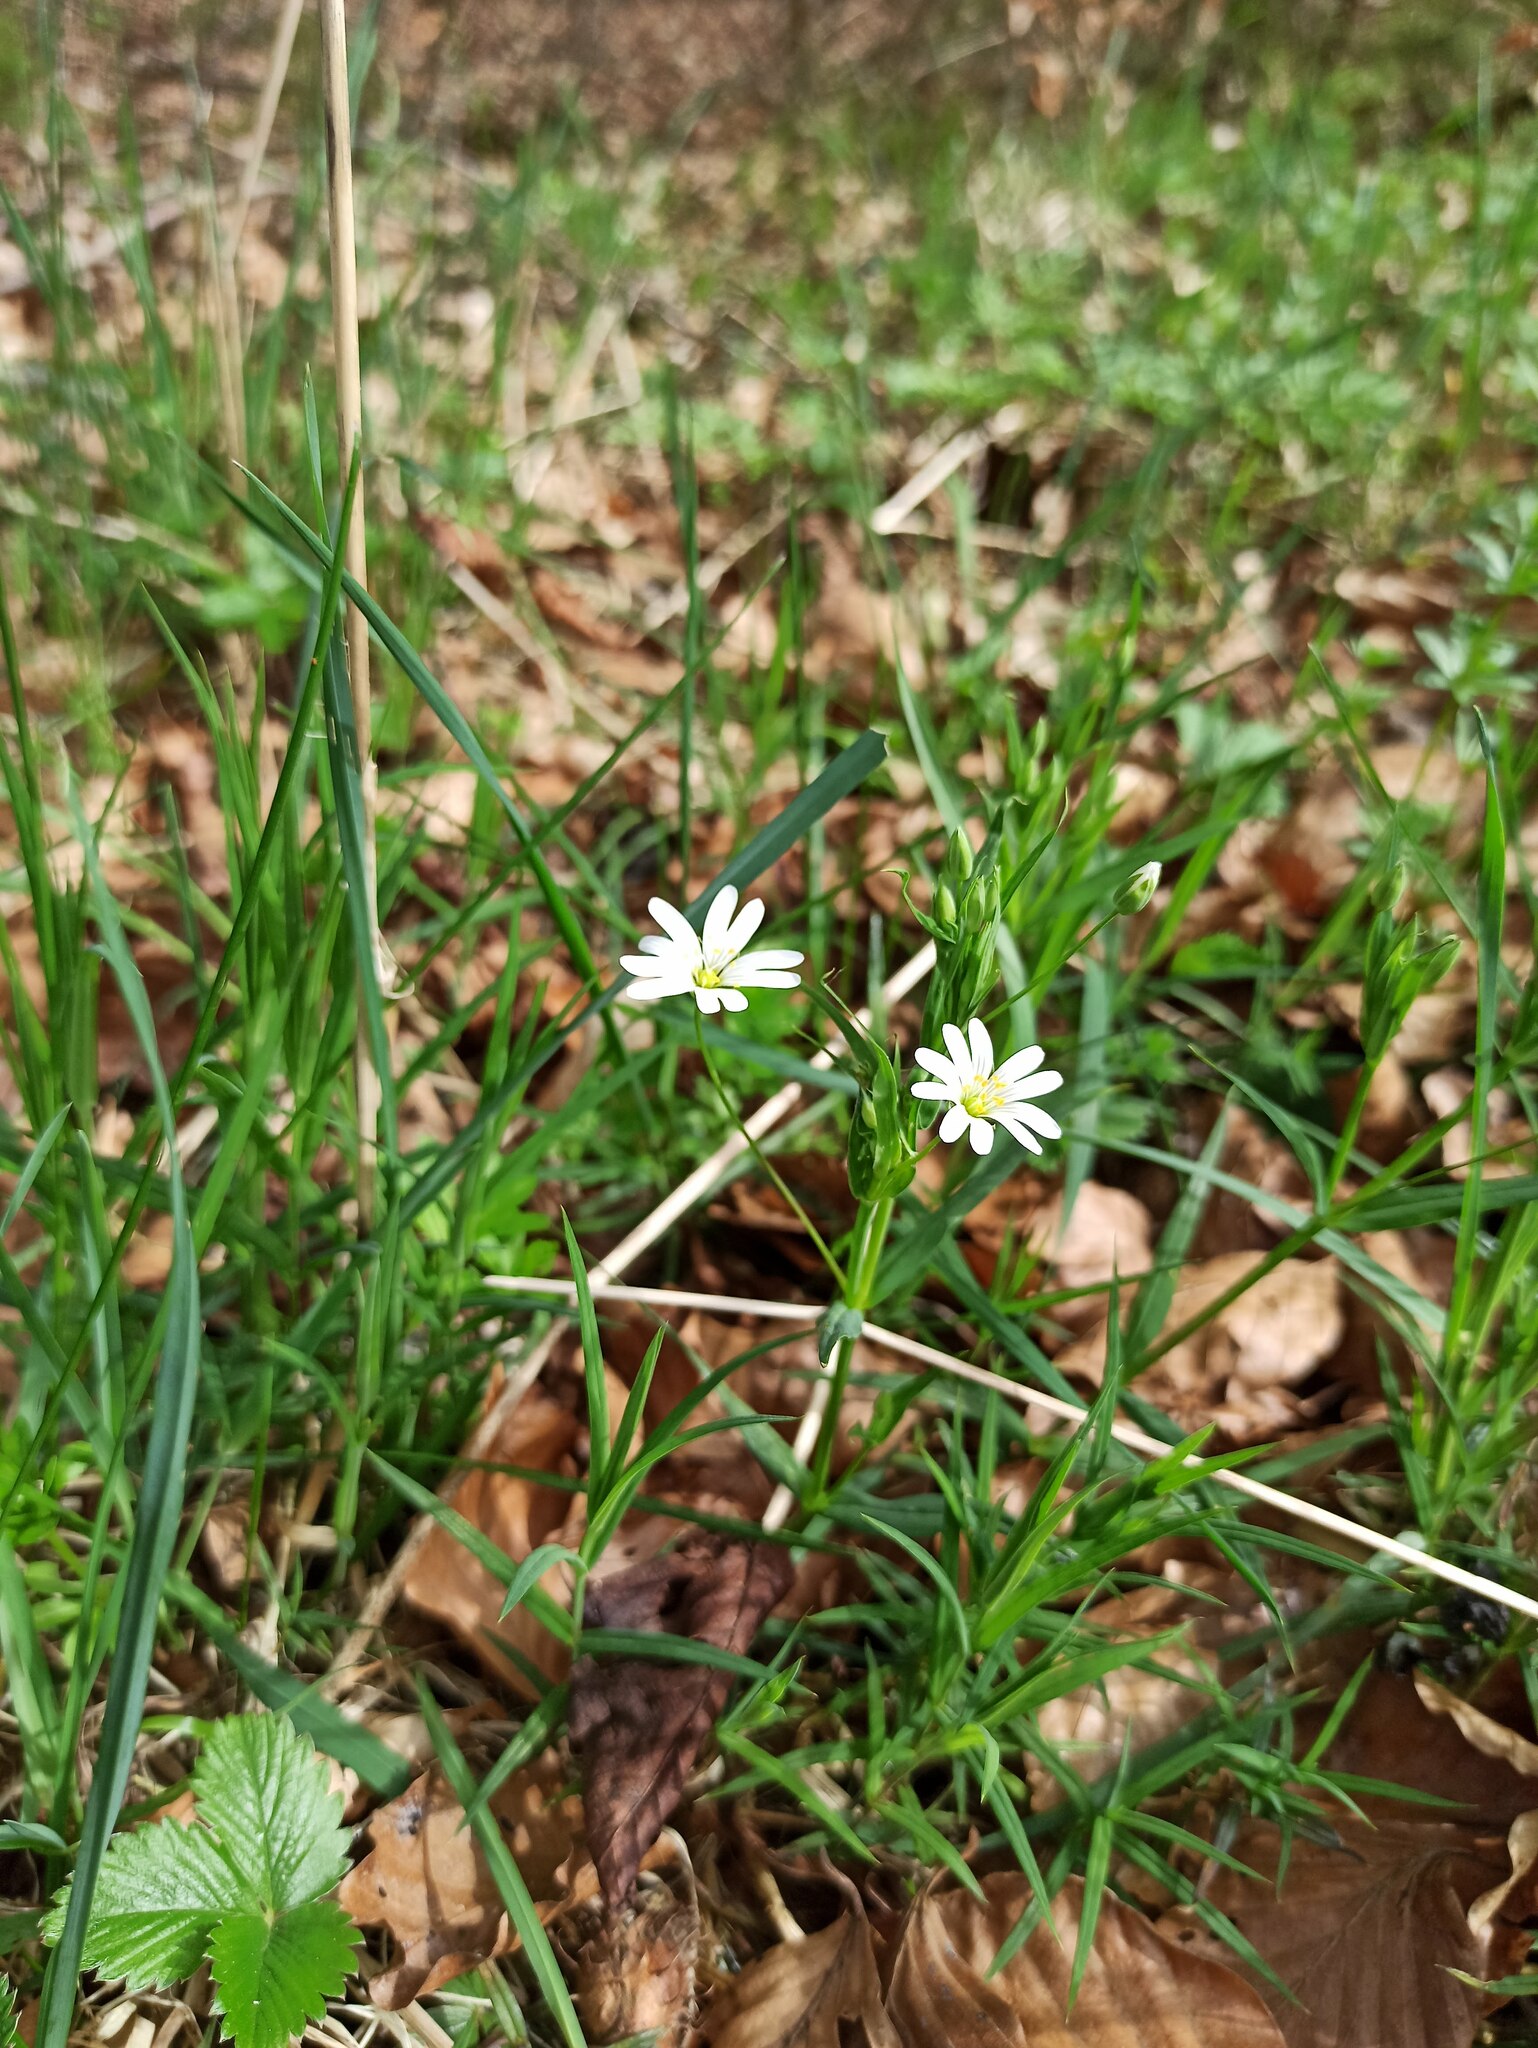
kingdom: Plantae
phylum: Tracheophyta
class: Magnoliopsida
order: Caryophyllales
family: Caryophyllaceae
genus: Rabelera
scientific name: Rabelera holostea
